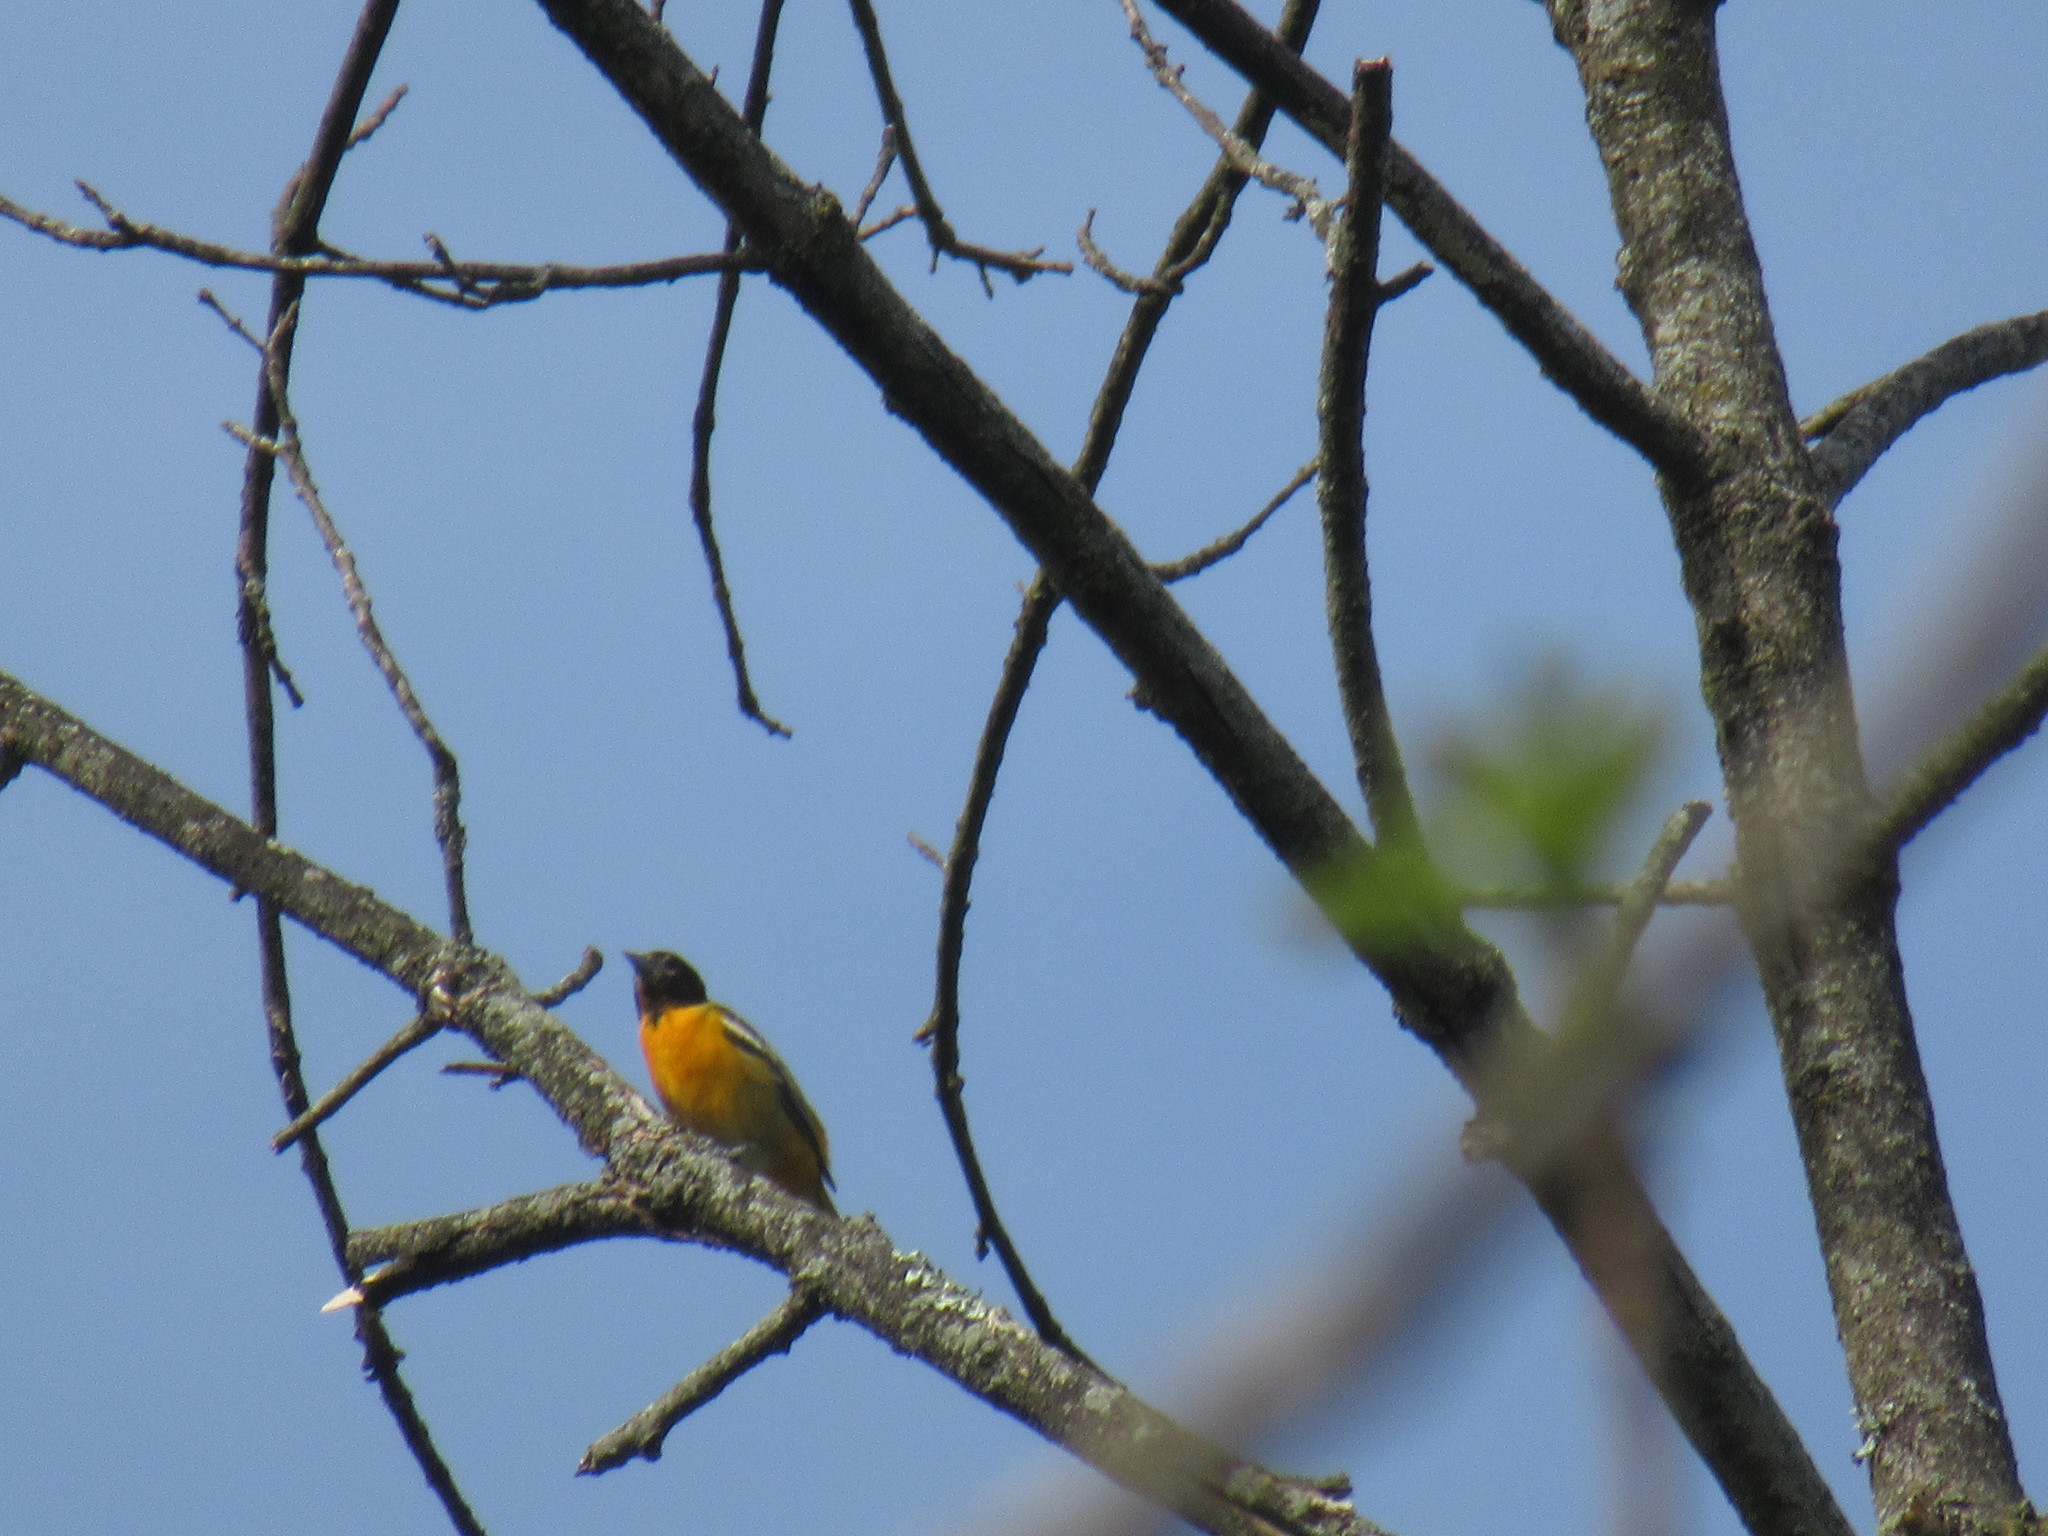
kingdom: Animalia
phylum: Chordata
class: Aves
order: Passeriformes
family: Icteridae
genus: Icterus
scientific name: Icterus galbula
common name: Baltimore oriole
